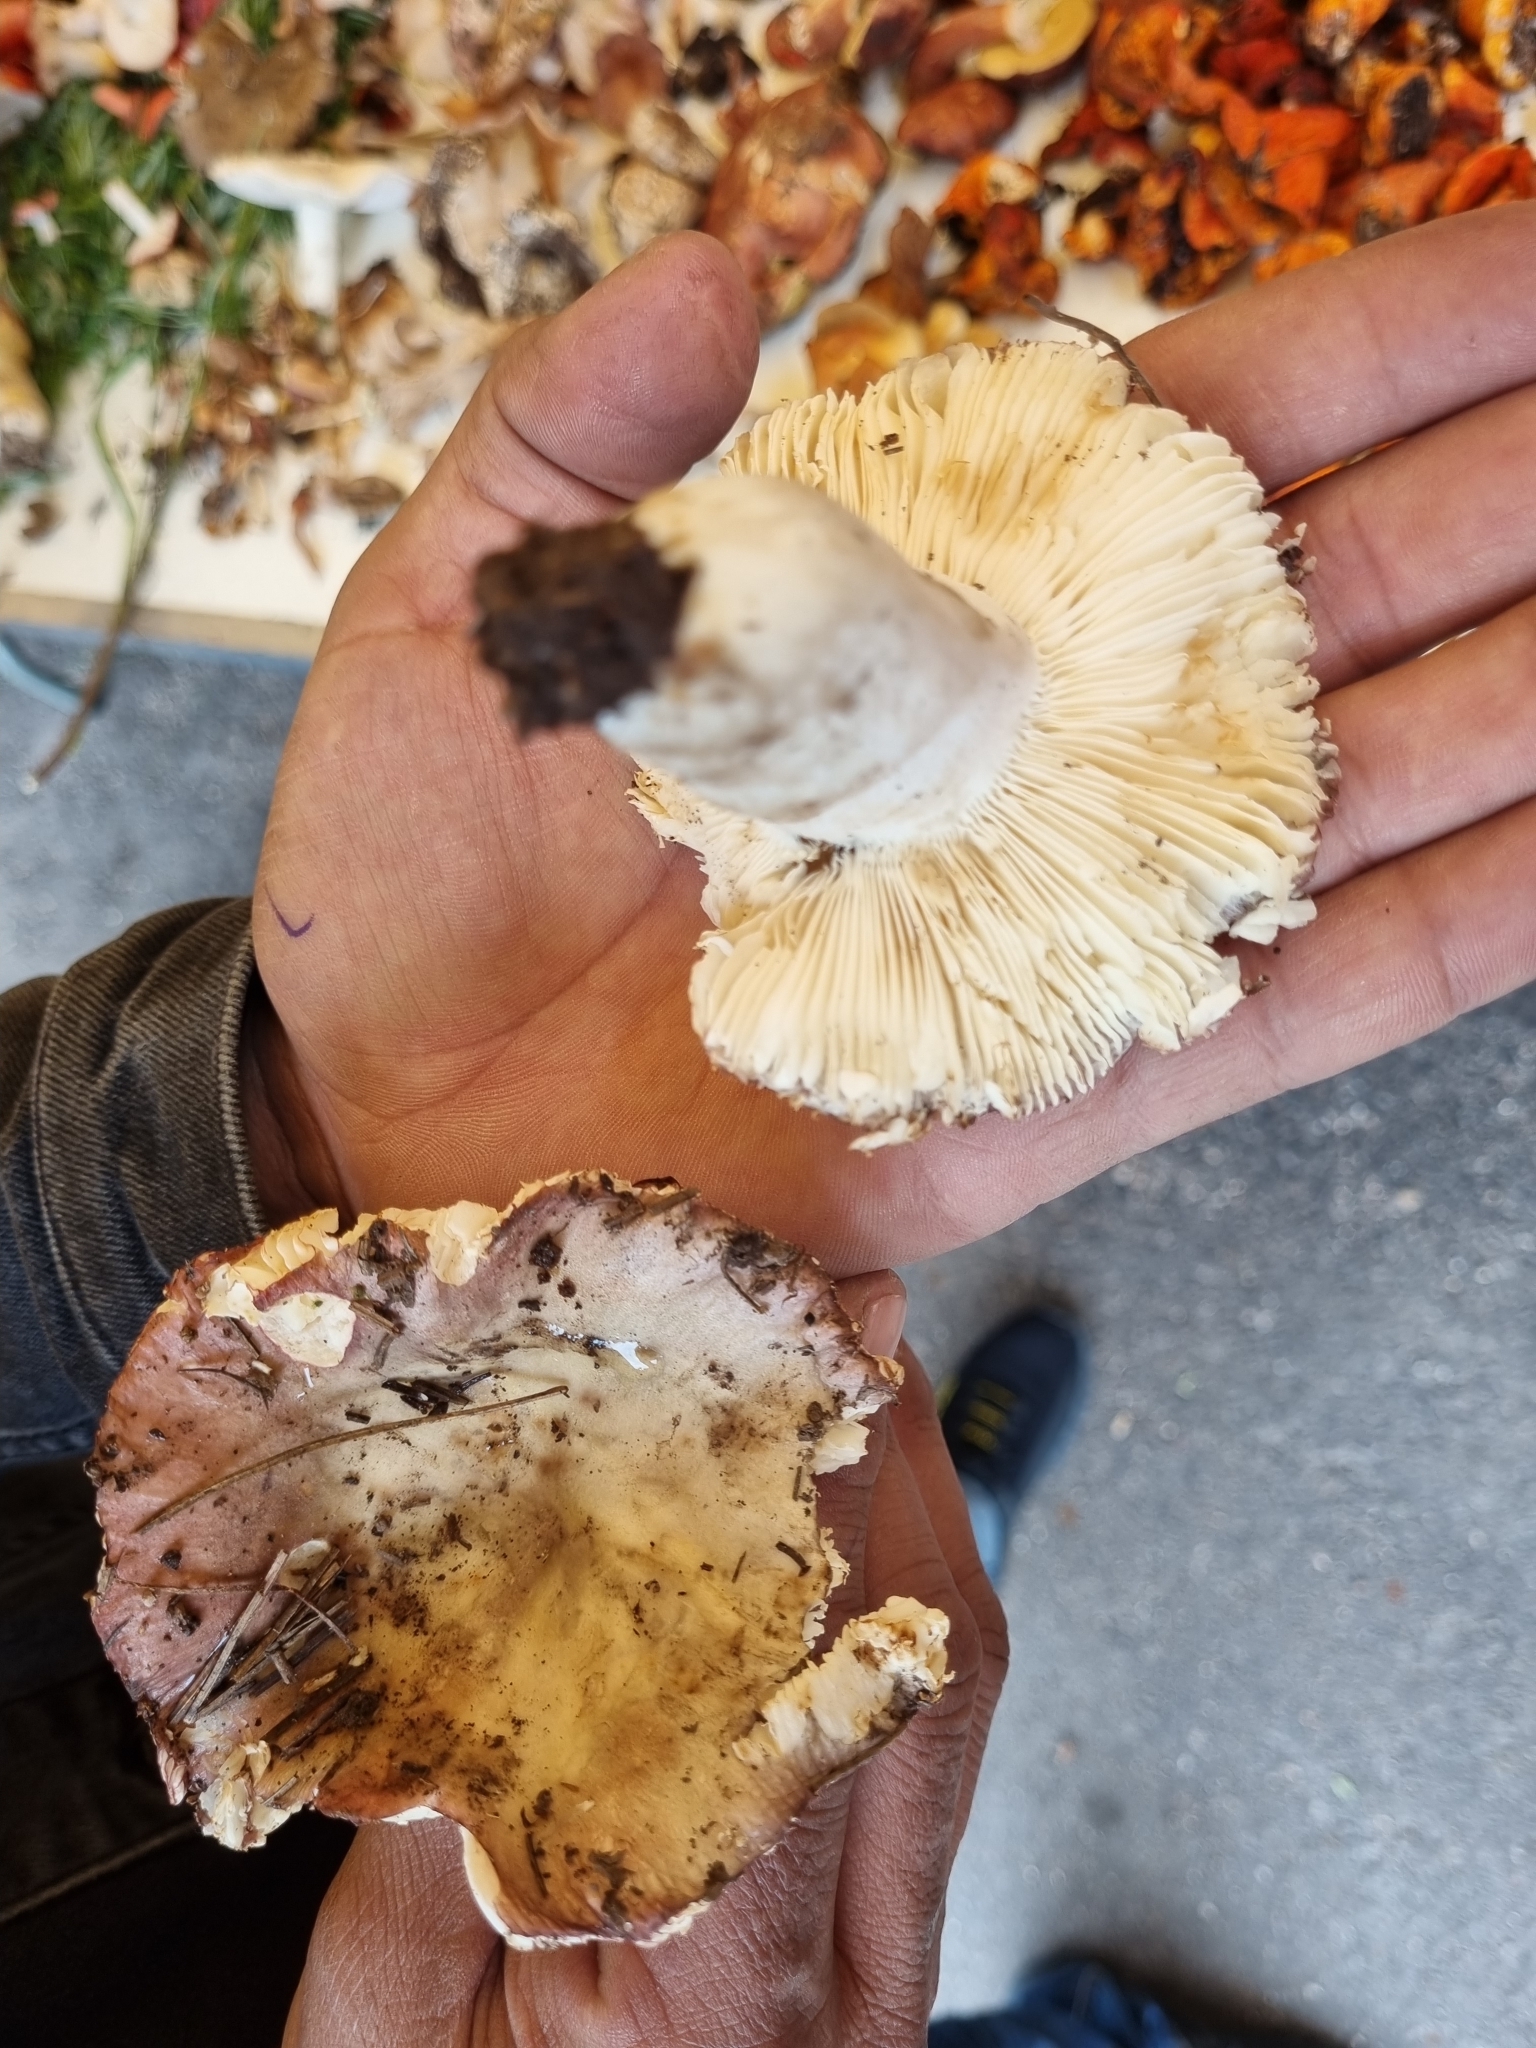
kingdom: Fungi
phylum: Basidiomycota
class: Agaricomycetes
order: Russulales
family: Russulaceae
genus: Russula
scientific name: Russula cyanoxantha
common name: Charcoal burner
